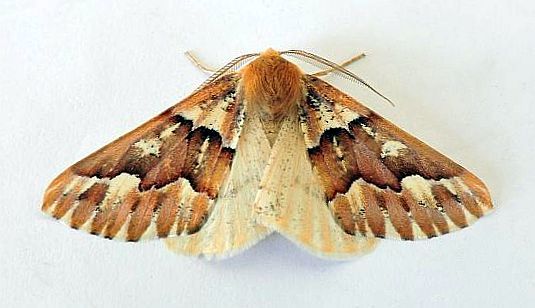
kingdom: Animalia
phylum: Arthropoda
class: Insecta
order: Lepidoptera
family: Geometridae
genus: Caripeta
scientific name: Caripeta aequaliaria
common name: Red girdle moth
